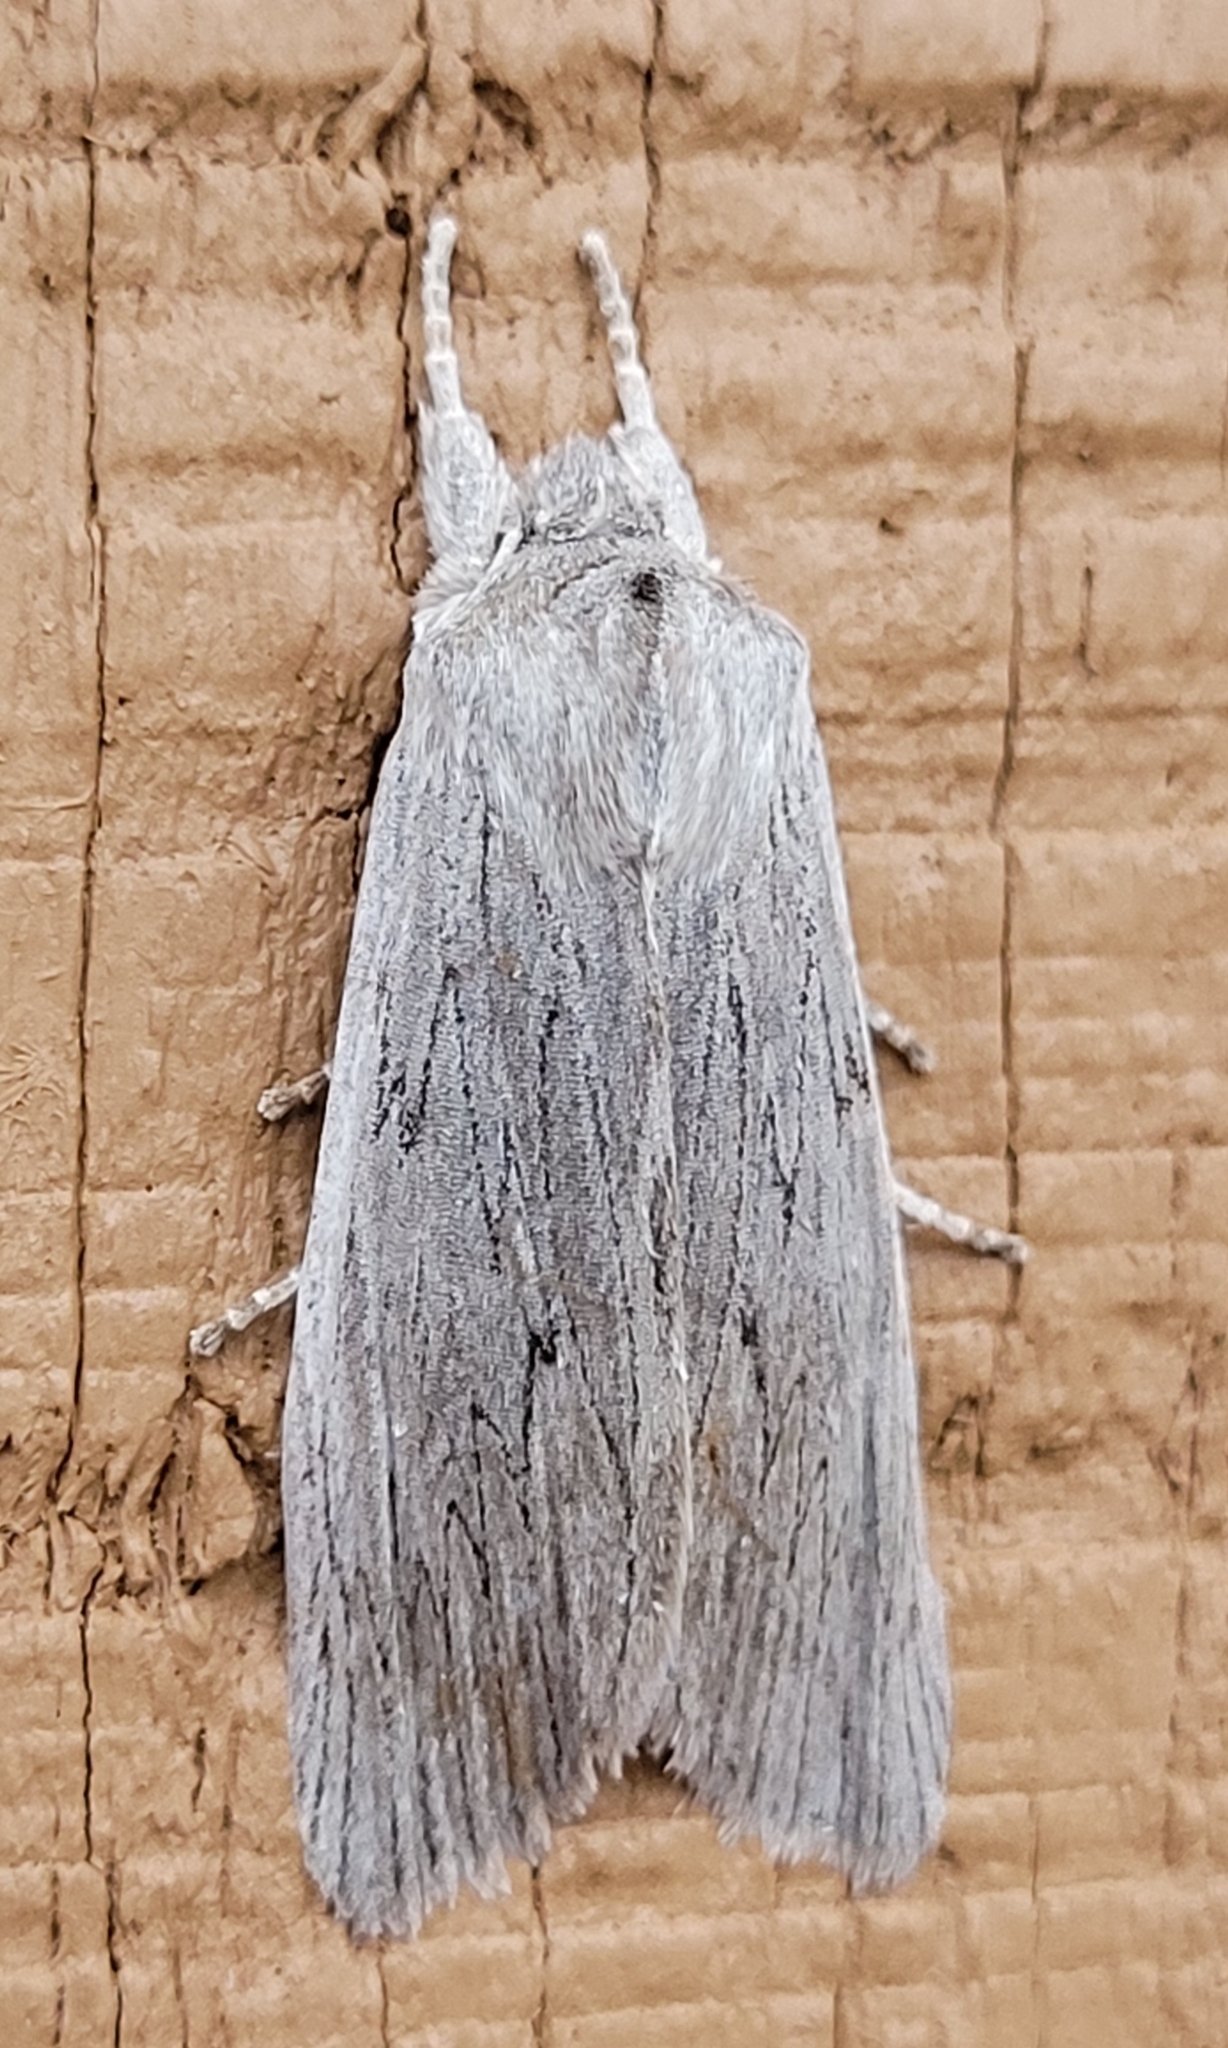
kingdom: Animalia
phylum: Arthropoda
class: Insecta
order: Lepidoptera
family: Noctuidae
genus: Lithophane
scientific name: Lithophane fagina
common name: Hoary pinion moth
